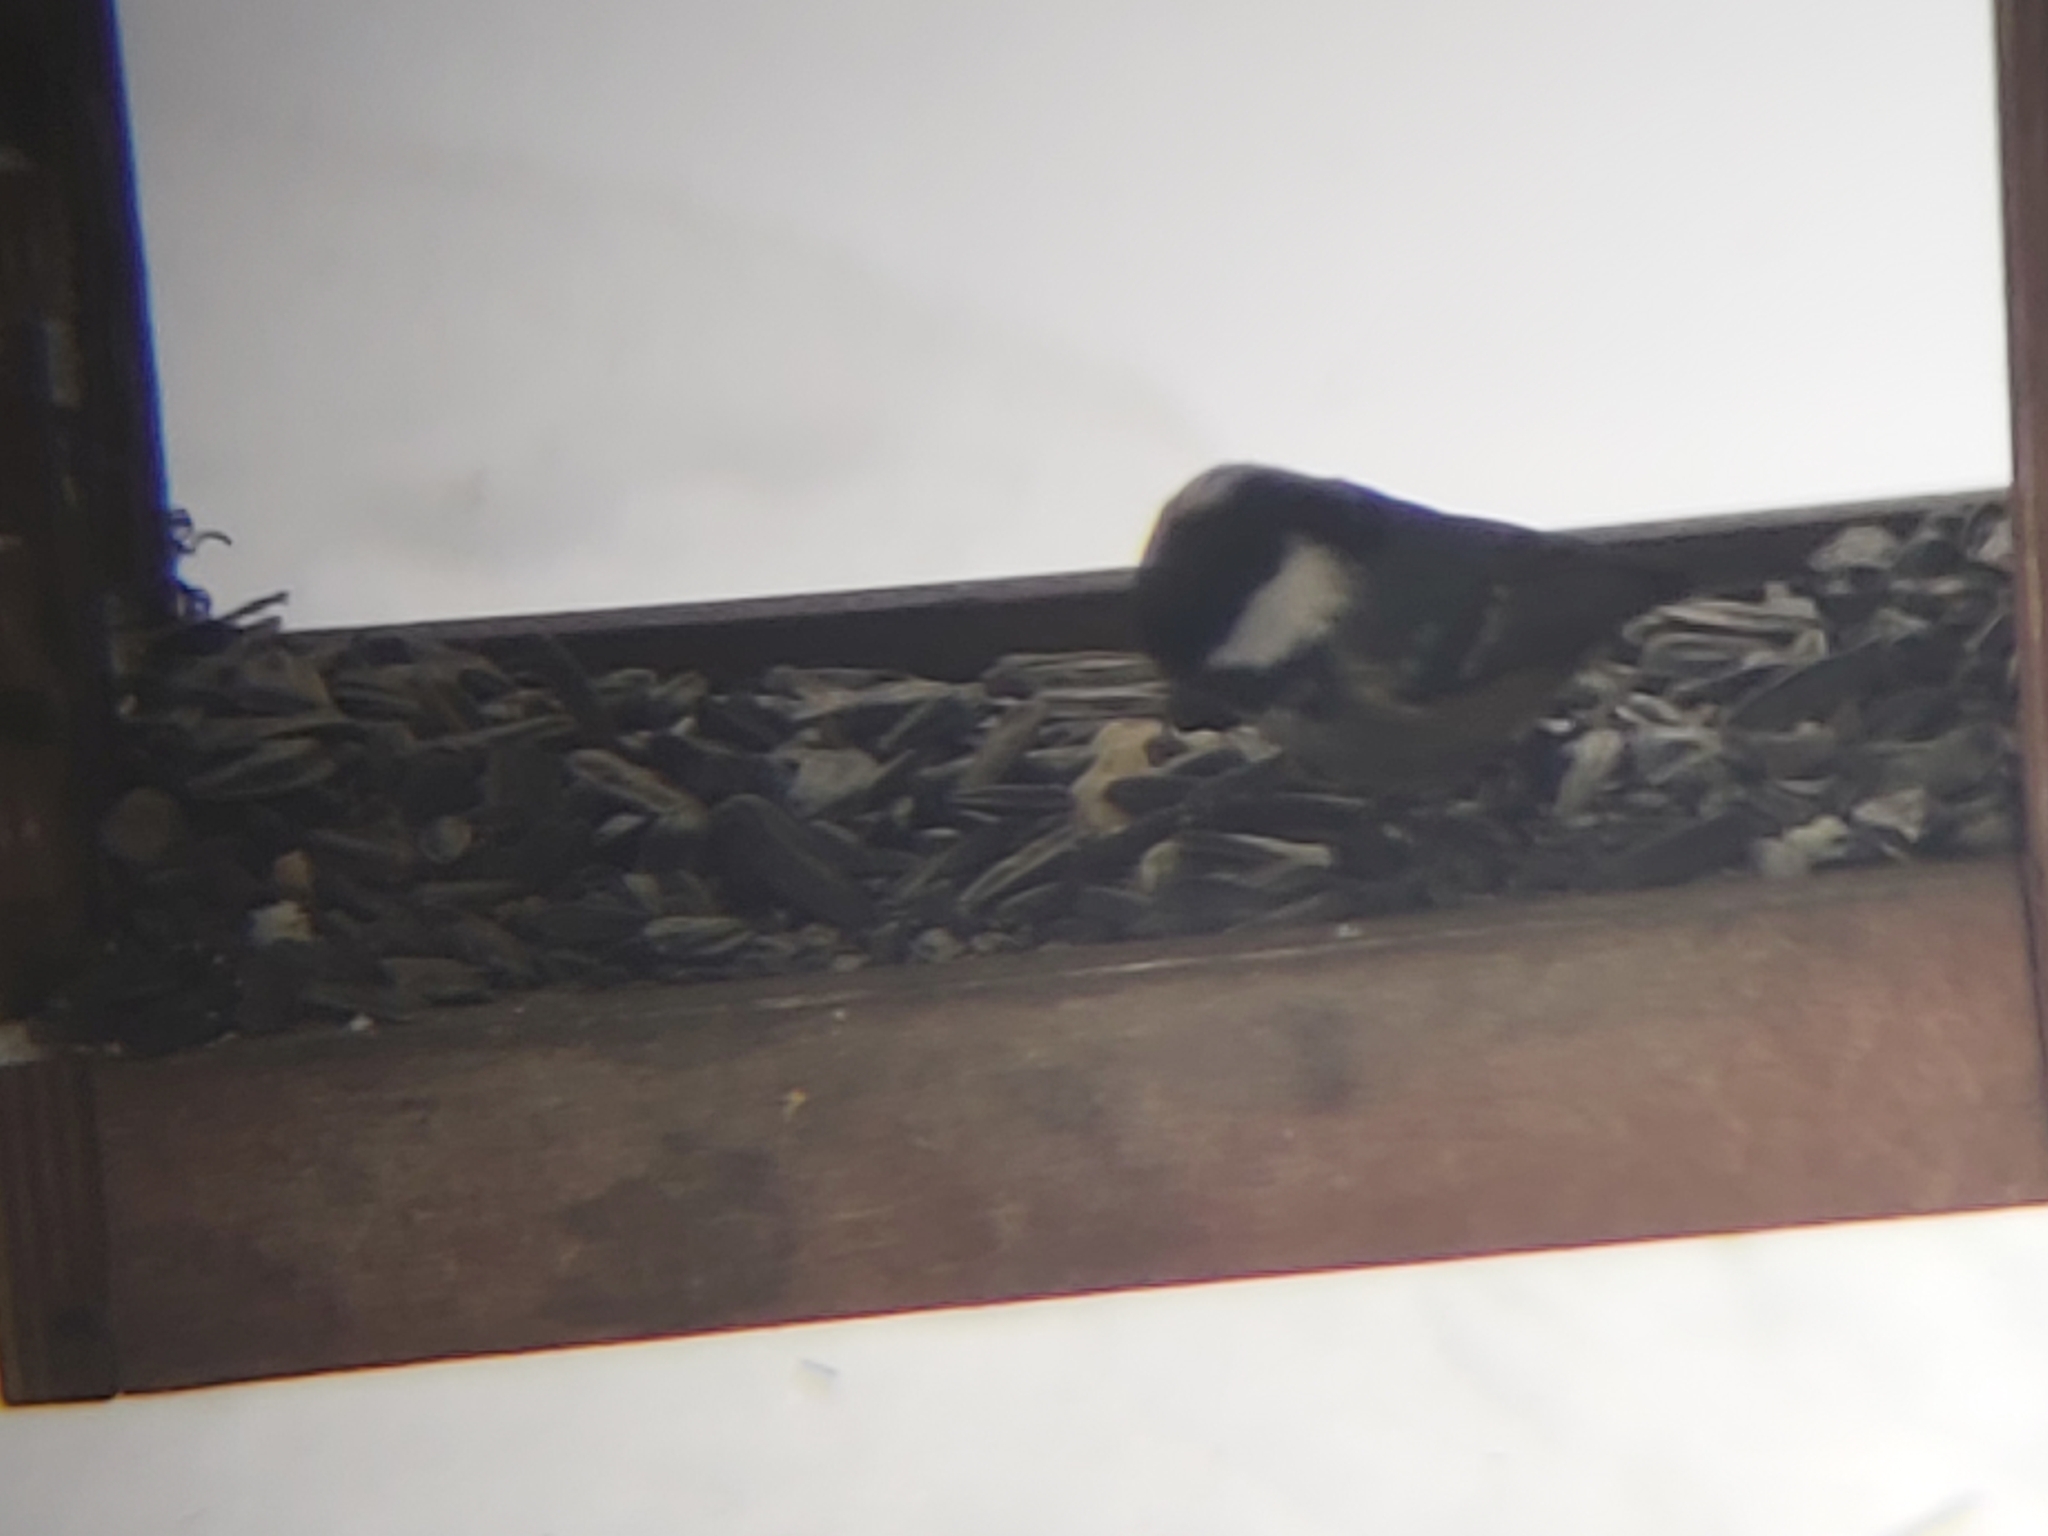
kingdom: Animalia
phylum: Chordata
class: Aves
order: Passeriformes
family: Paridae
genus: Periparus
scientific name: Periparus ater
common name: Coal tit
